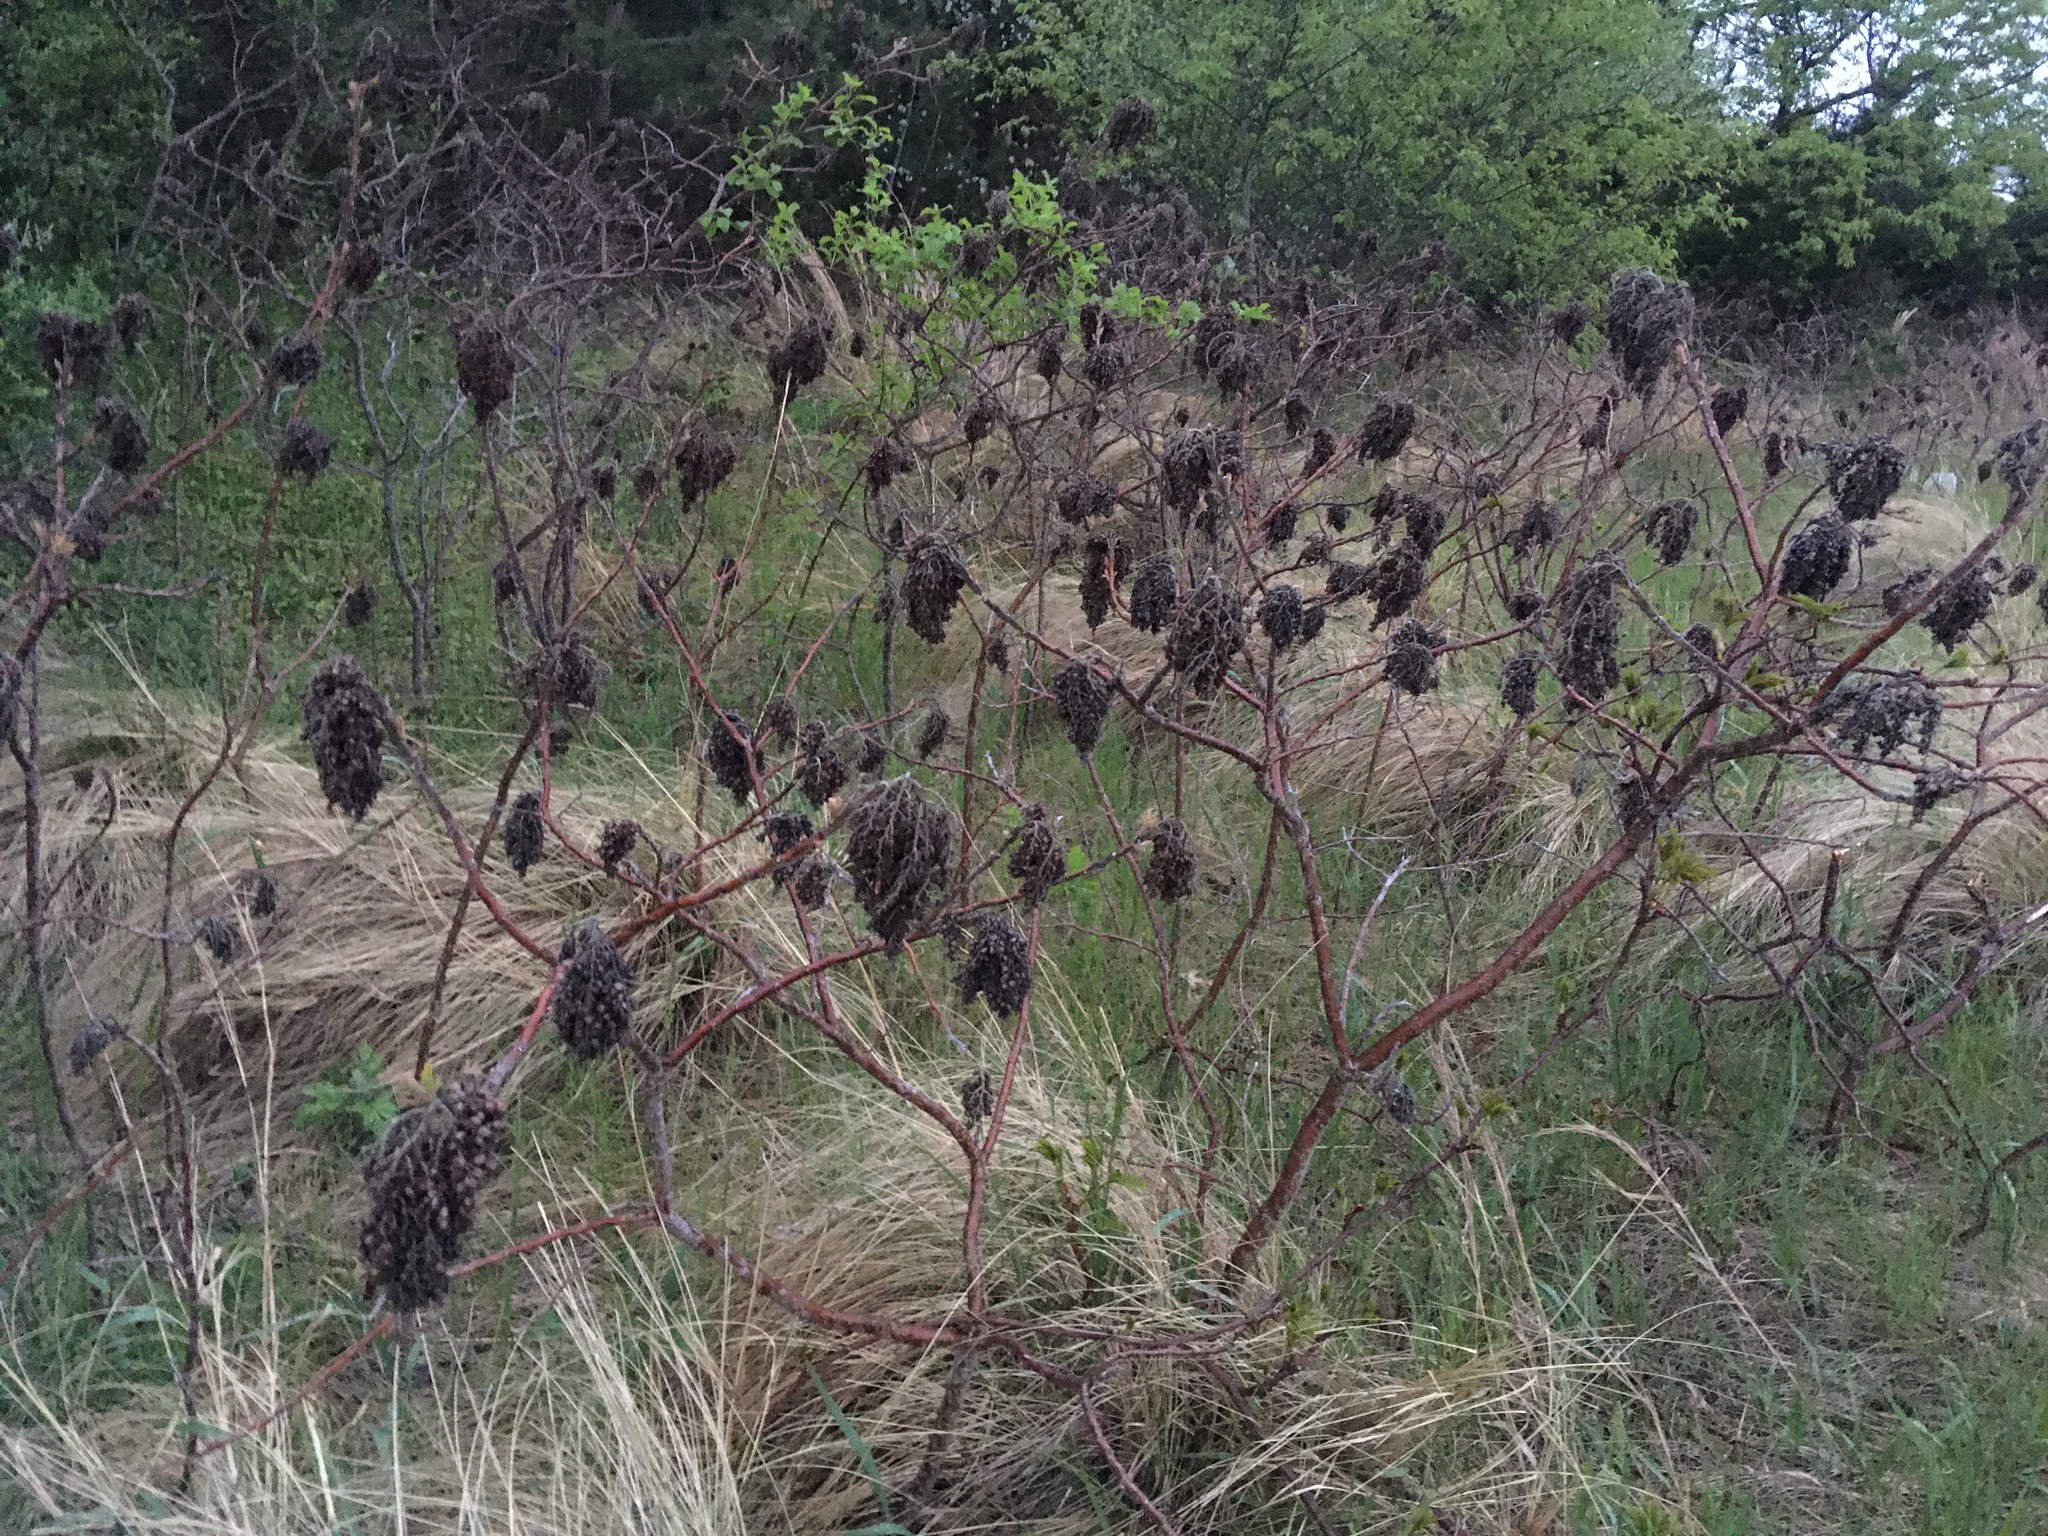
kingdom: Plantae
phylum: Tracheophyta
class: Magnoliopsida
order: Sapindales
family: Anacardiaceae
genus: Rhus
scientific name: Rhus copallina
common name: Shining sumac
